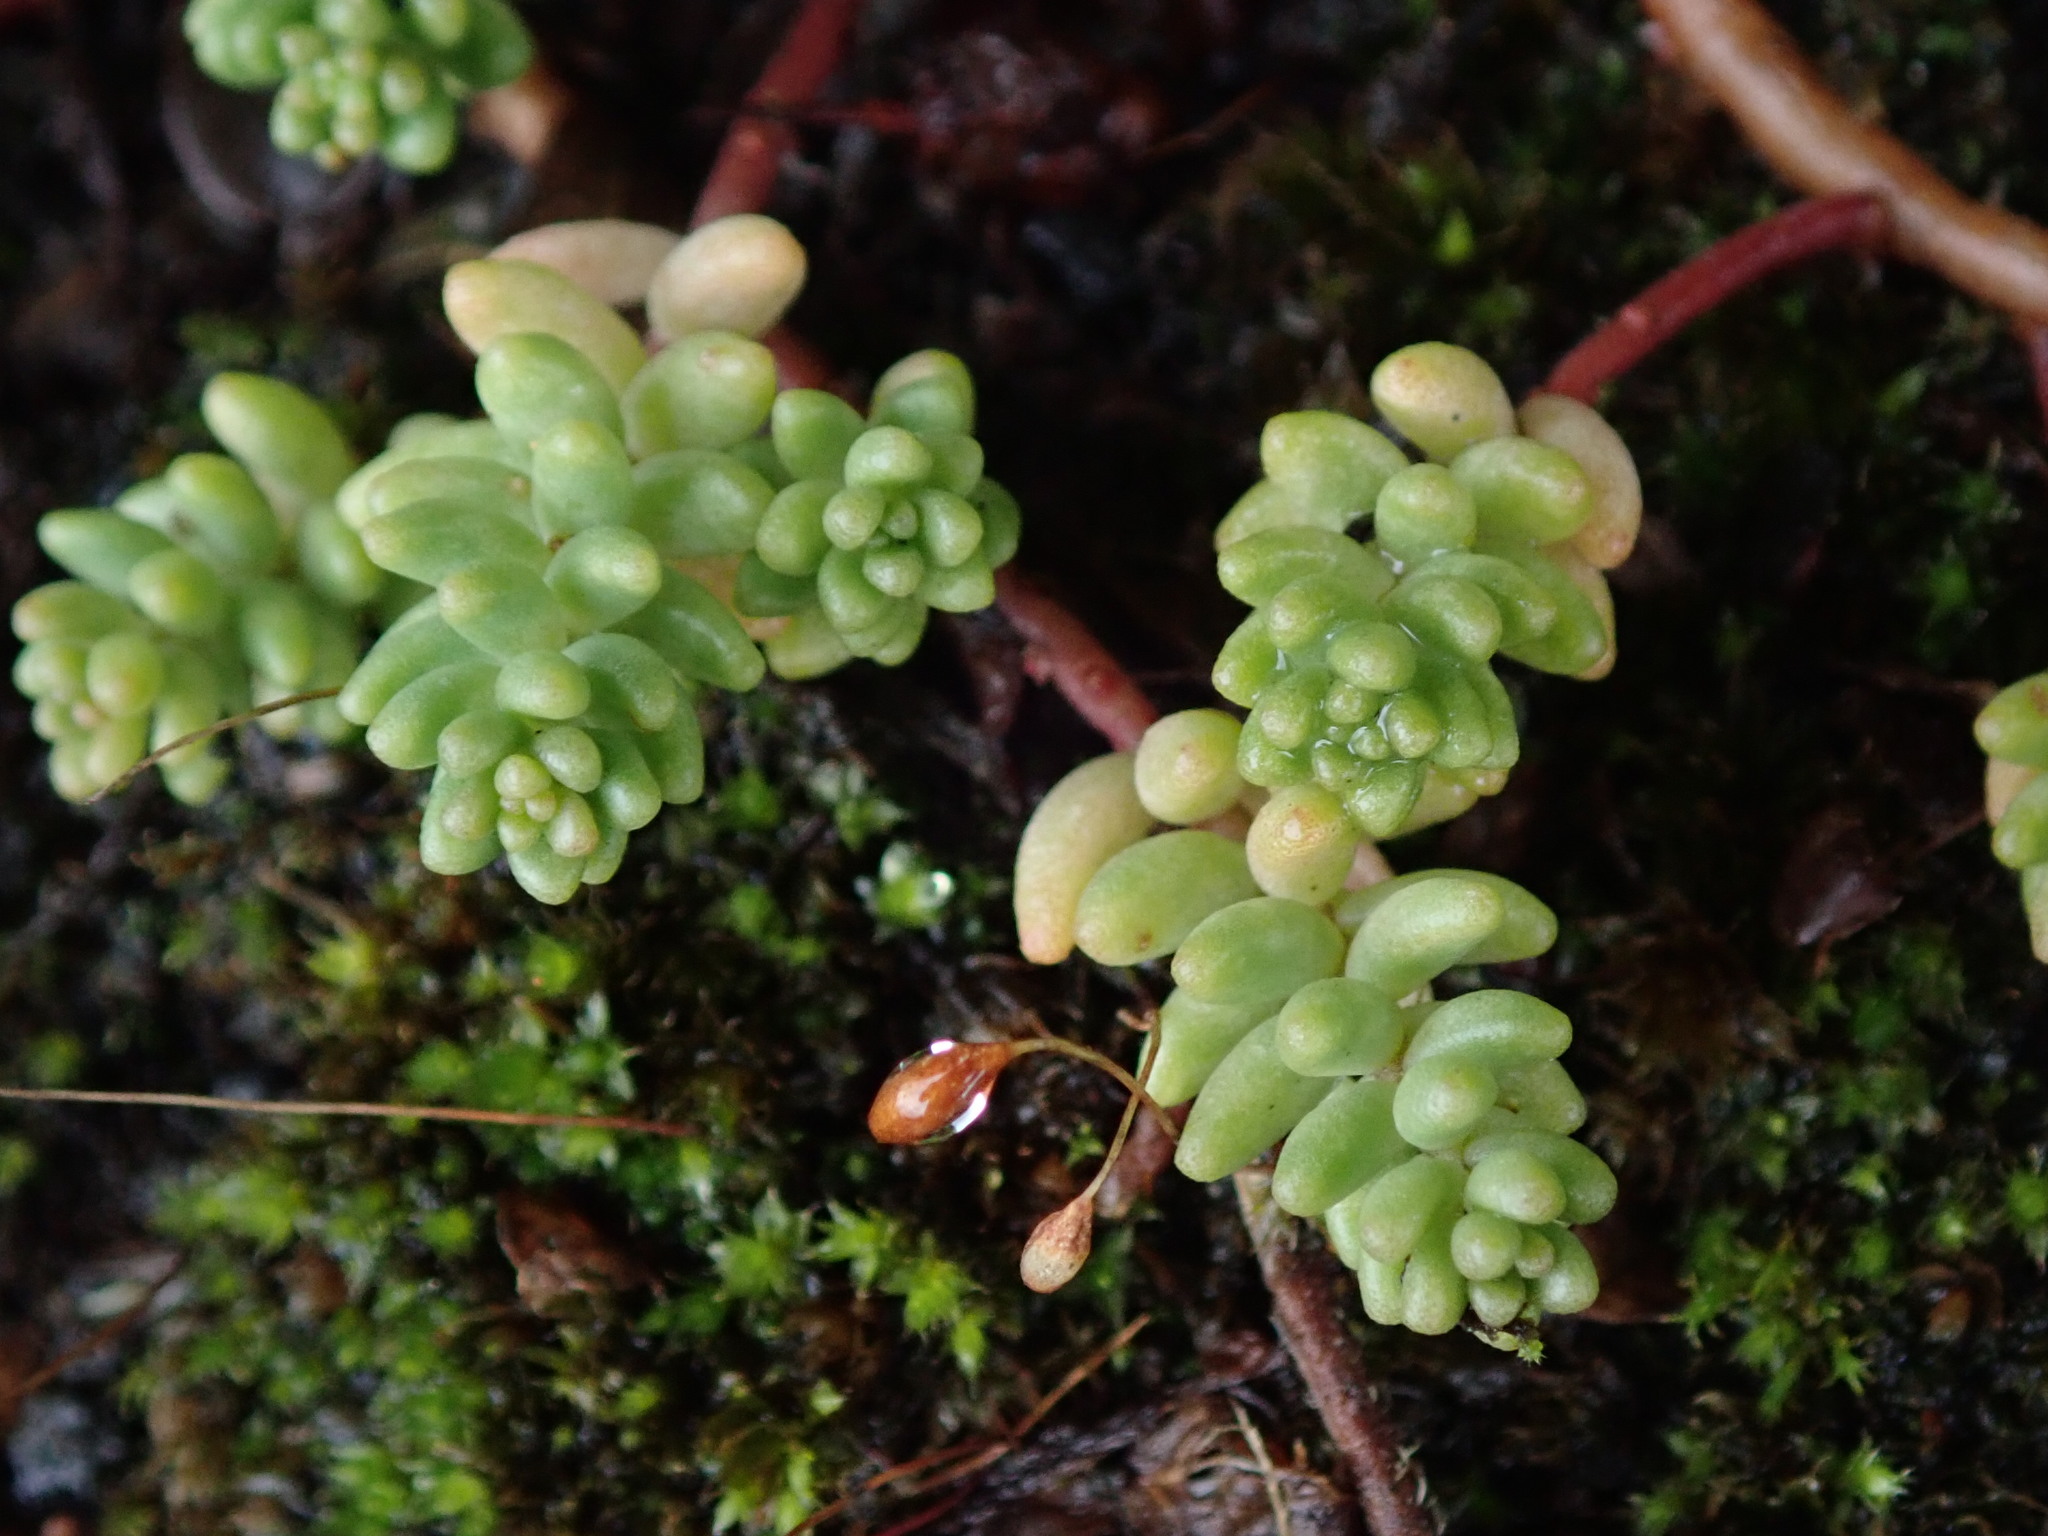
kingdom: Plantae
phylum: Tracheophyta
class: Magnoliopsida
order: Saxifragales
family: Crassulaceae
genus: Sedum
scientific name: Sedum album
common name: White stonecrop
